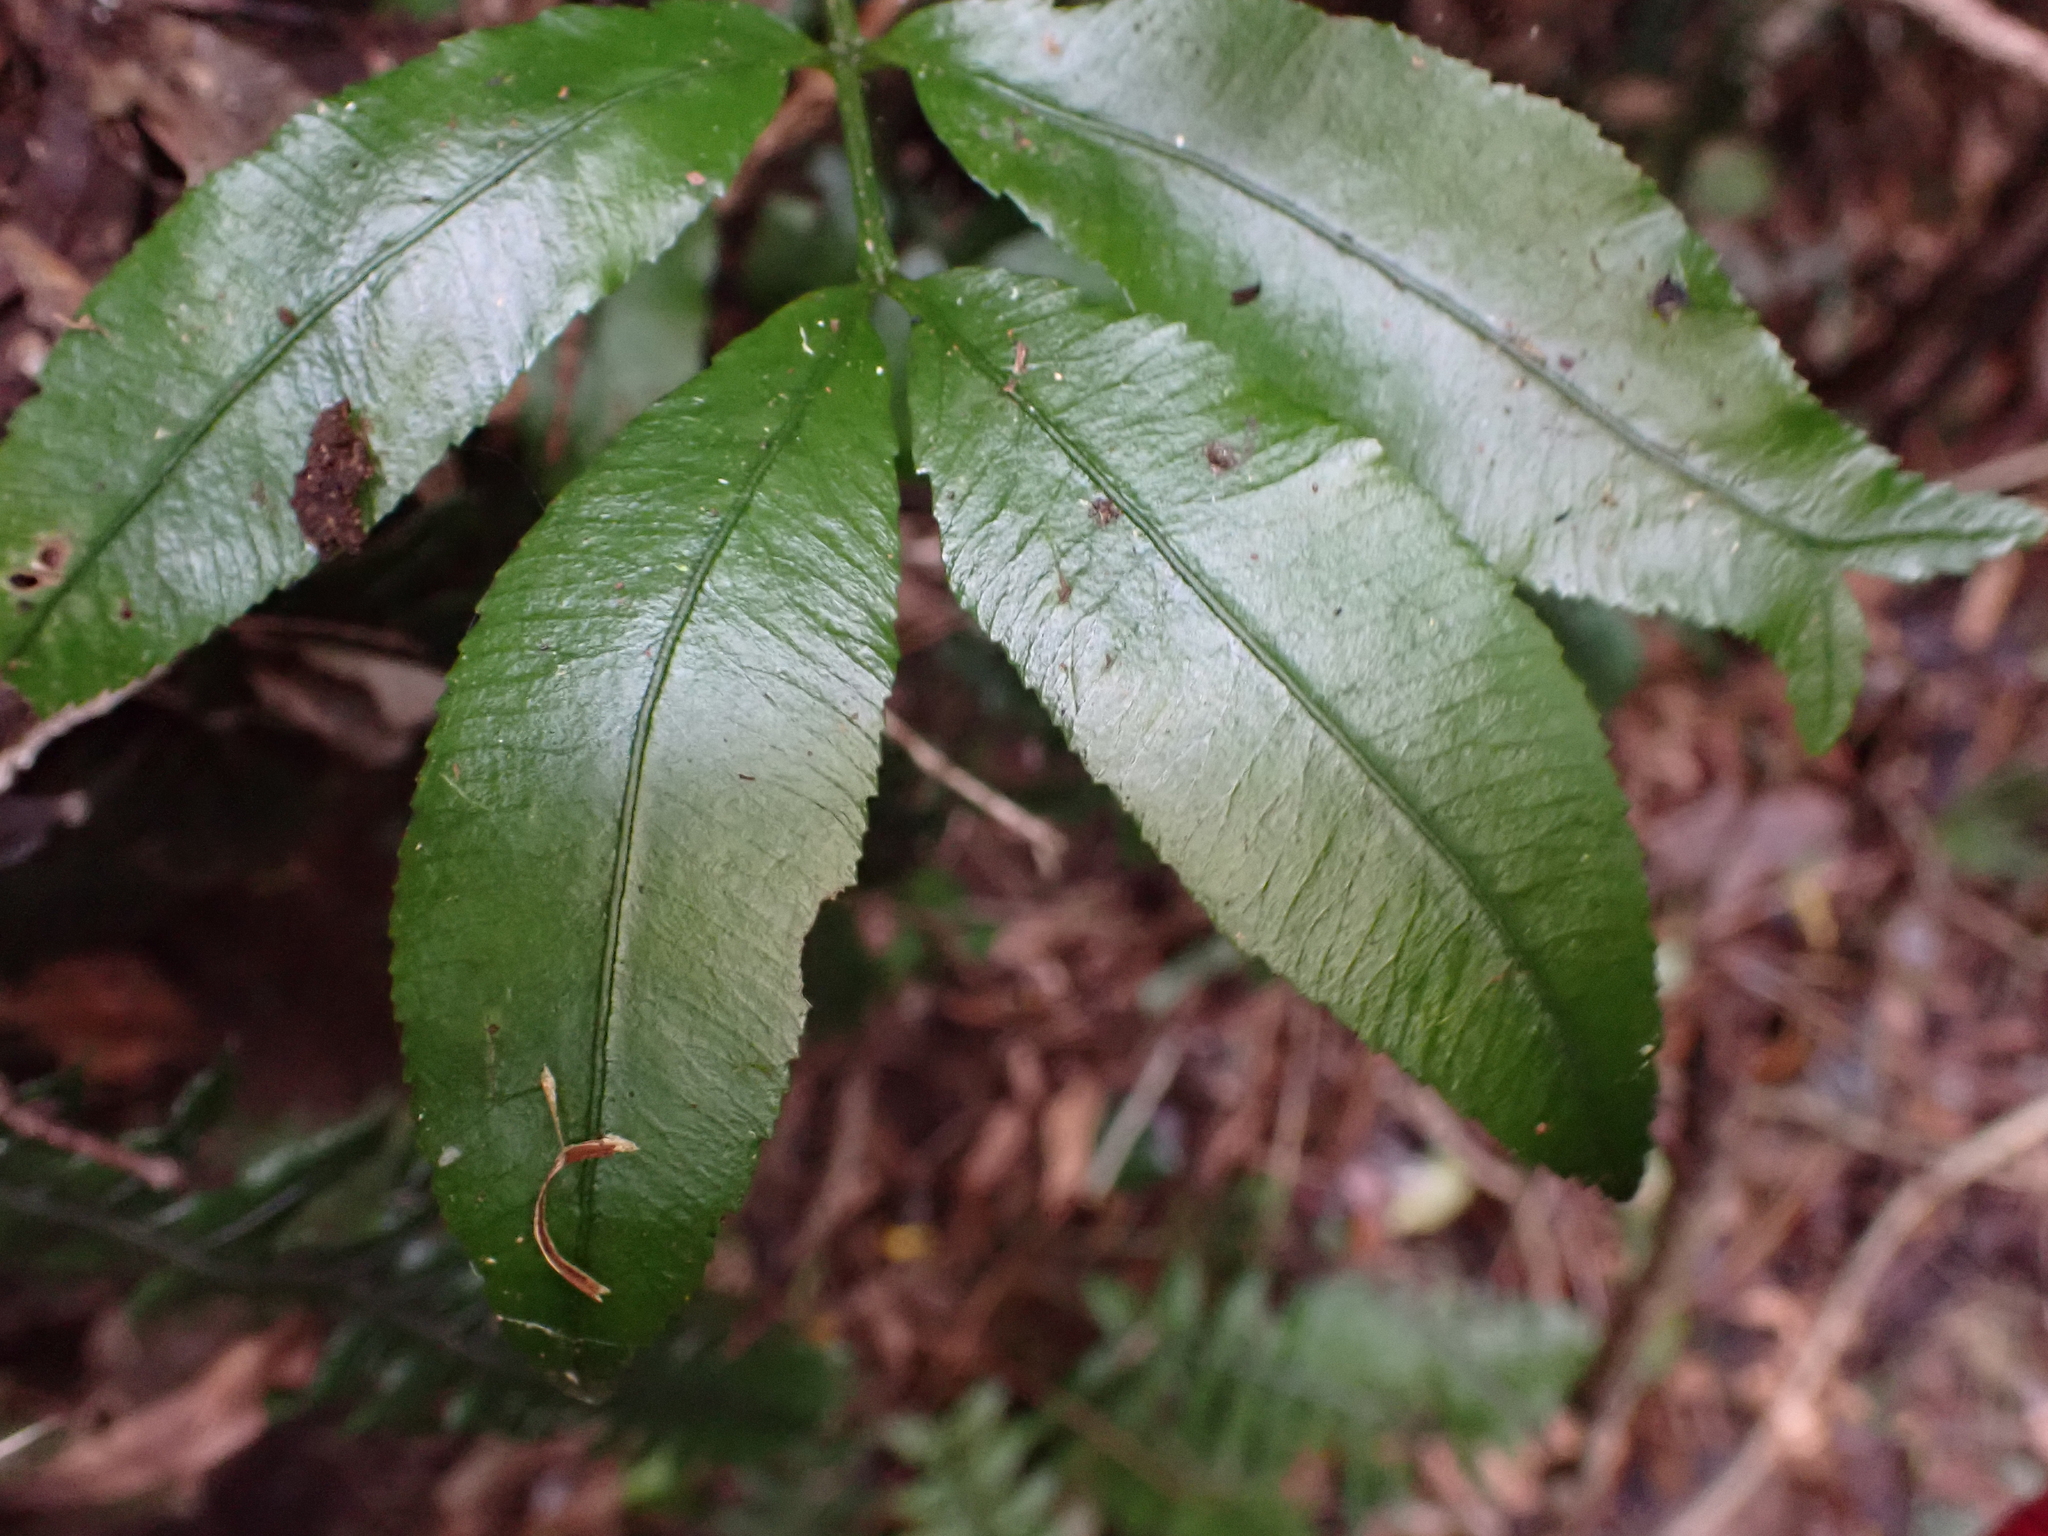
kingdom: Plantae
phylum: Tracheophyta
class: Polypodiopsida
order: Marattiales
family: Marattiaceae
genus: Ptisana
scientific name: Ptisana salicina
